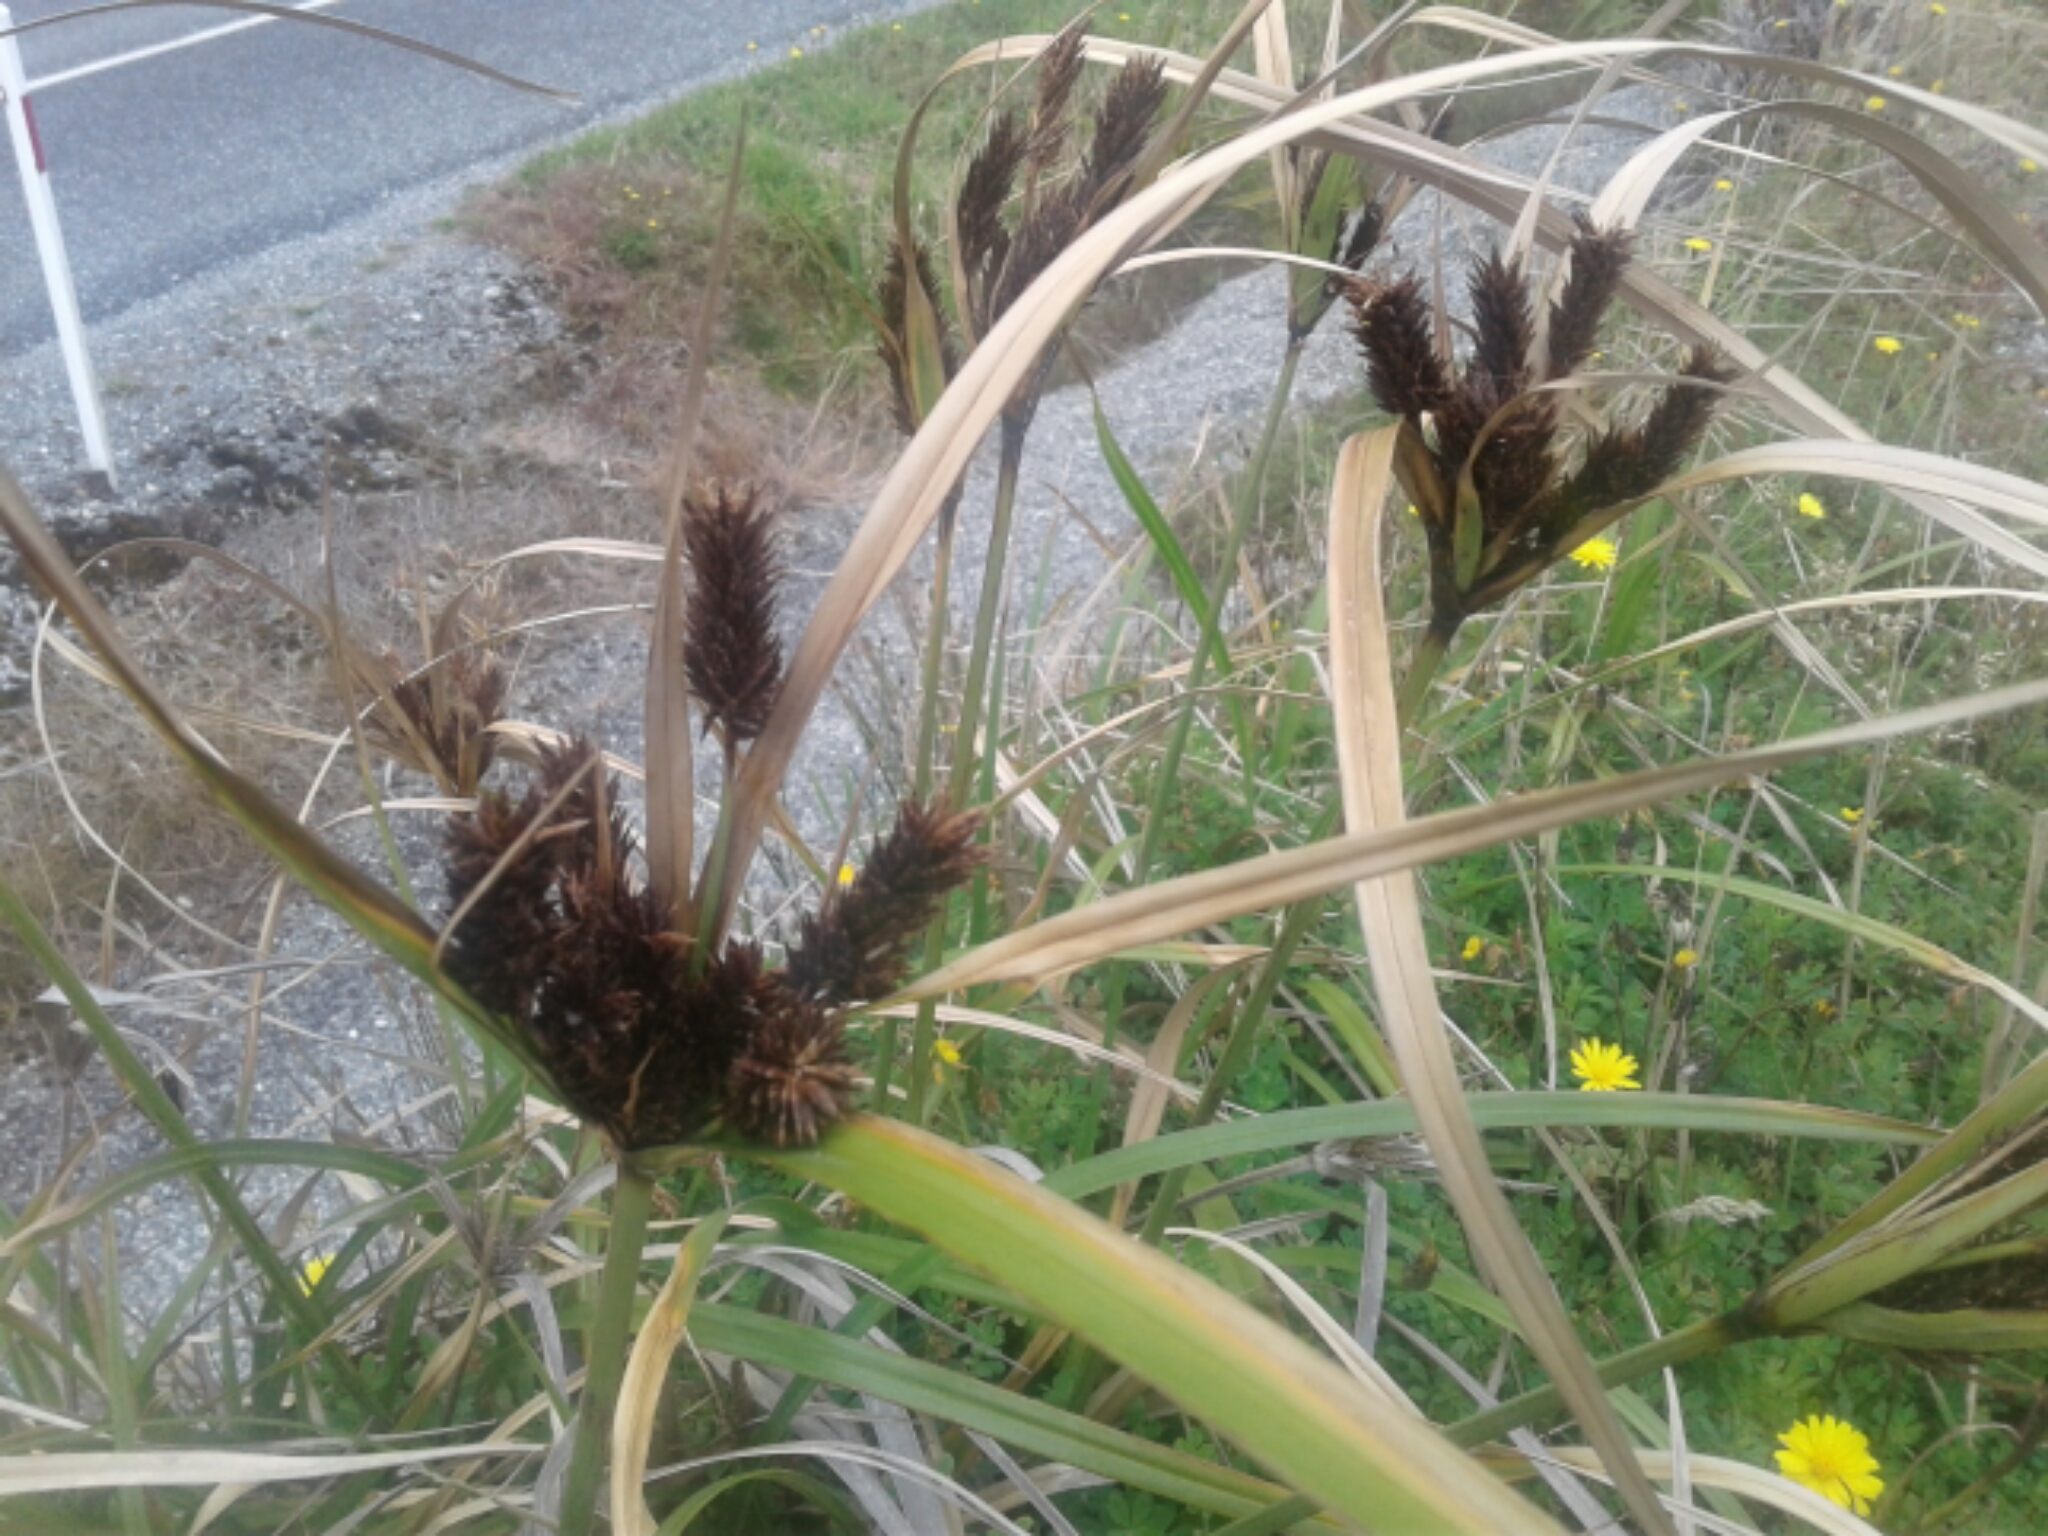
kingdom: Plantae
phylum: Tracheophyta
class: Liliopsida
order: Poales
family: Cyperaceae
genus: Cyperus
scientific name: Cyperus ustulatus
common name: Giant umbrella-sedge
